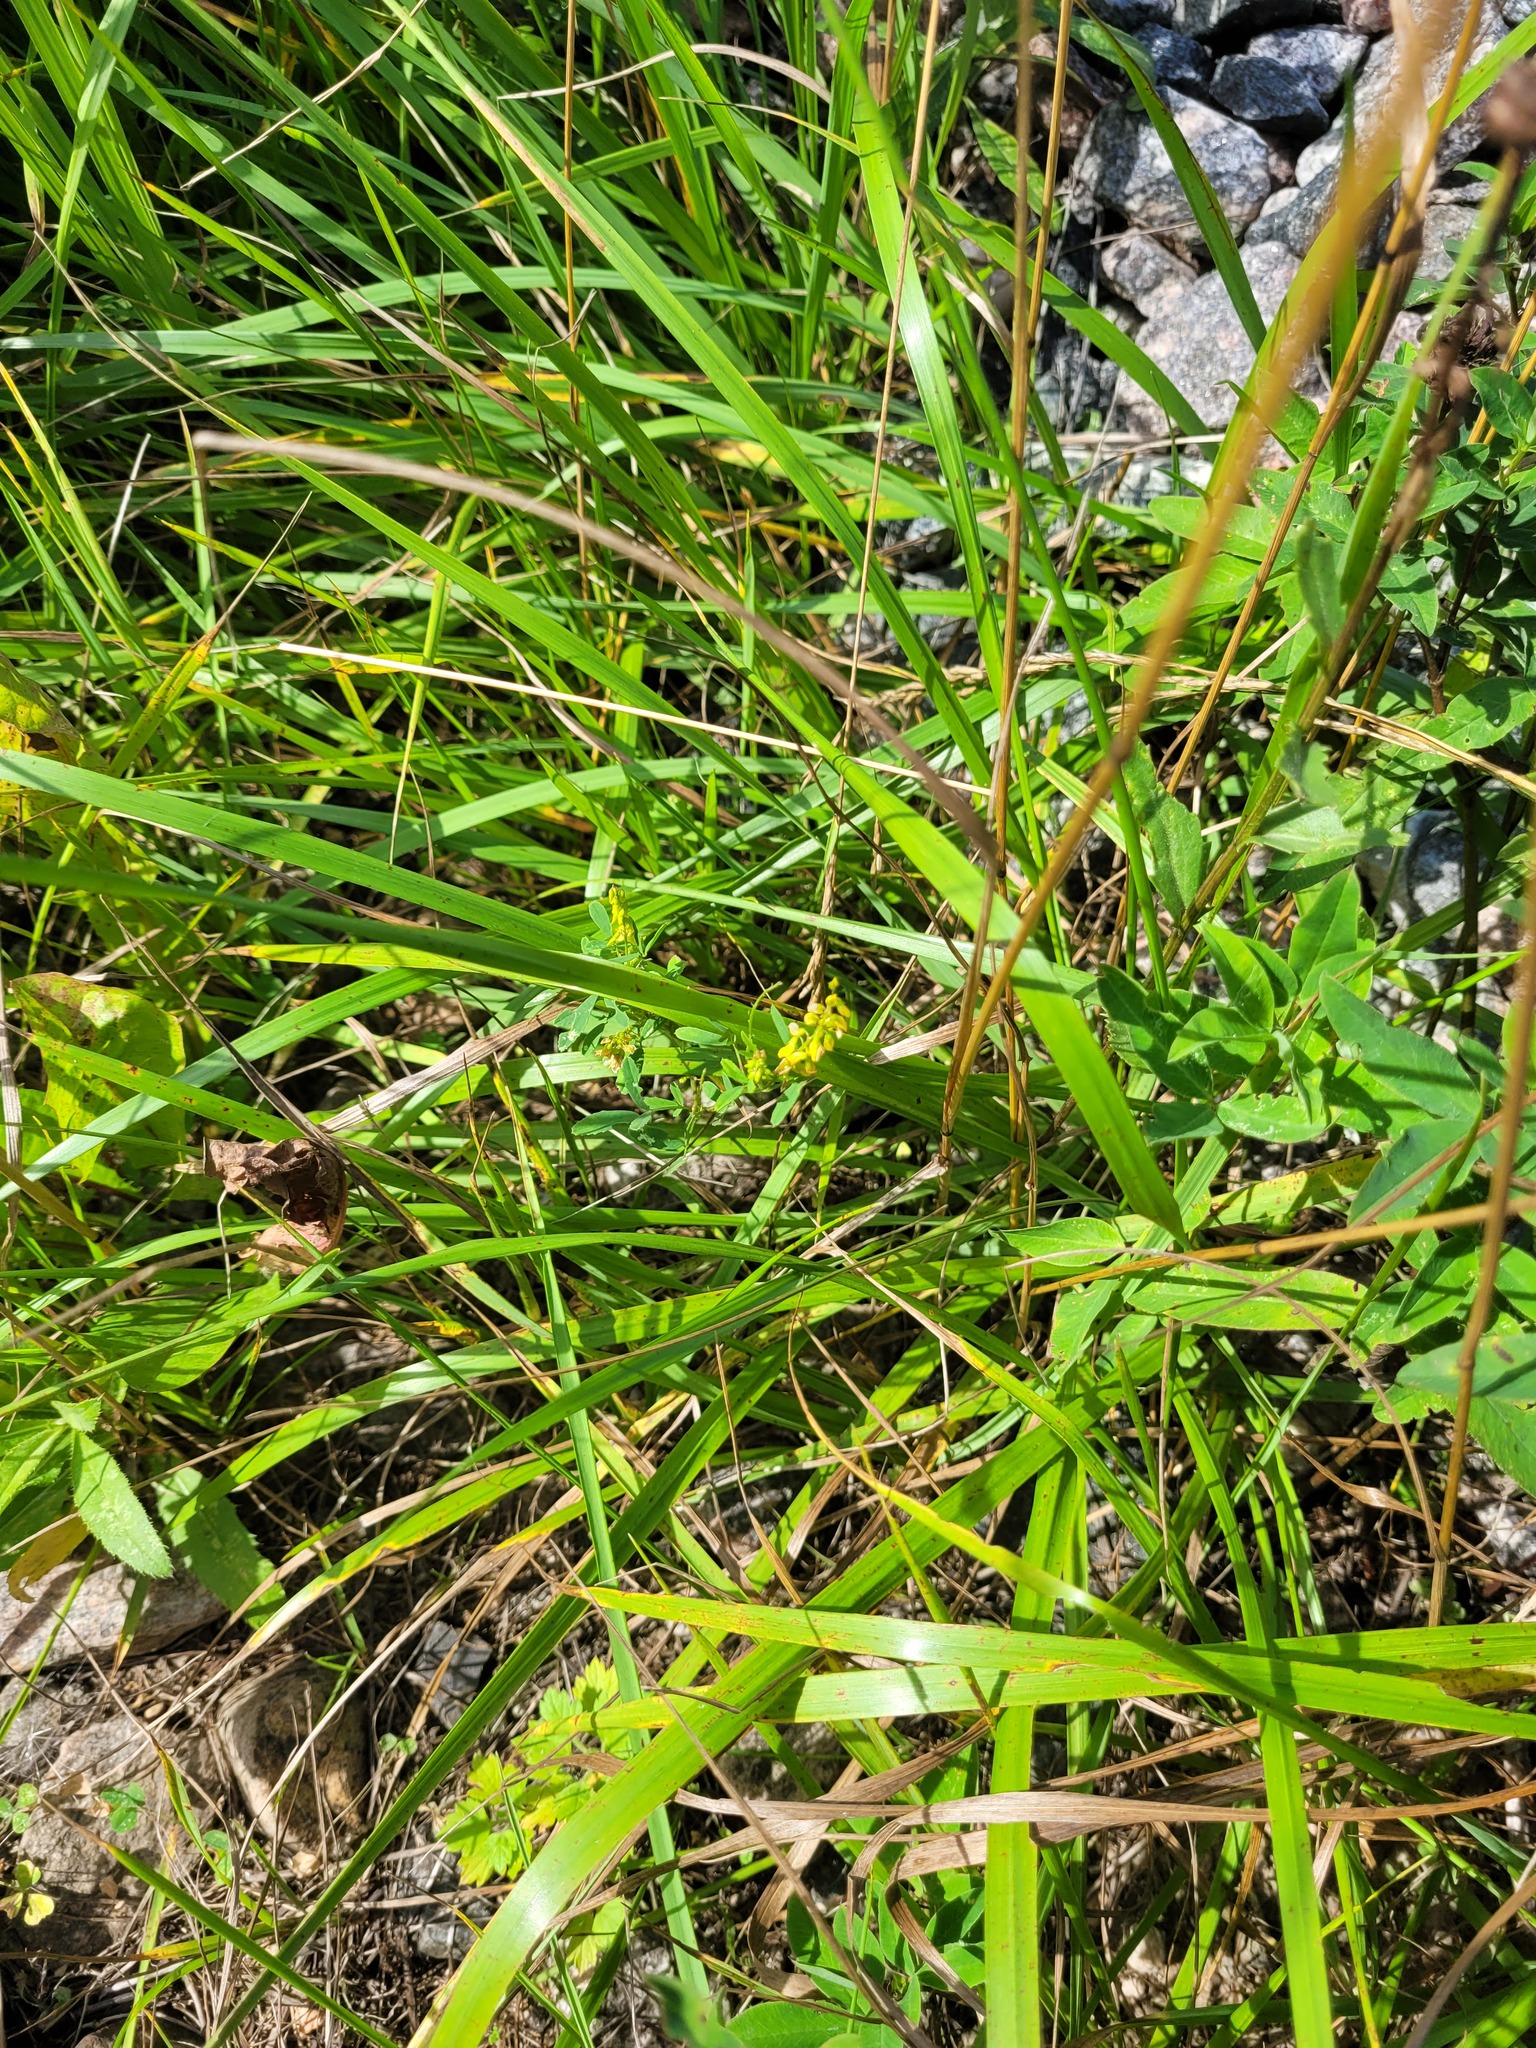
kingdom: Plantae
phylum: Tracheophyta
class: Magnoliopsida
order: Fabales
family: Fabaceae
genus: Melilotus
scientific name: Melilotus officinalis
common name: Sweetclover
